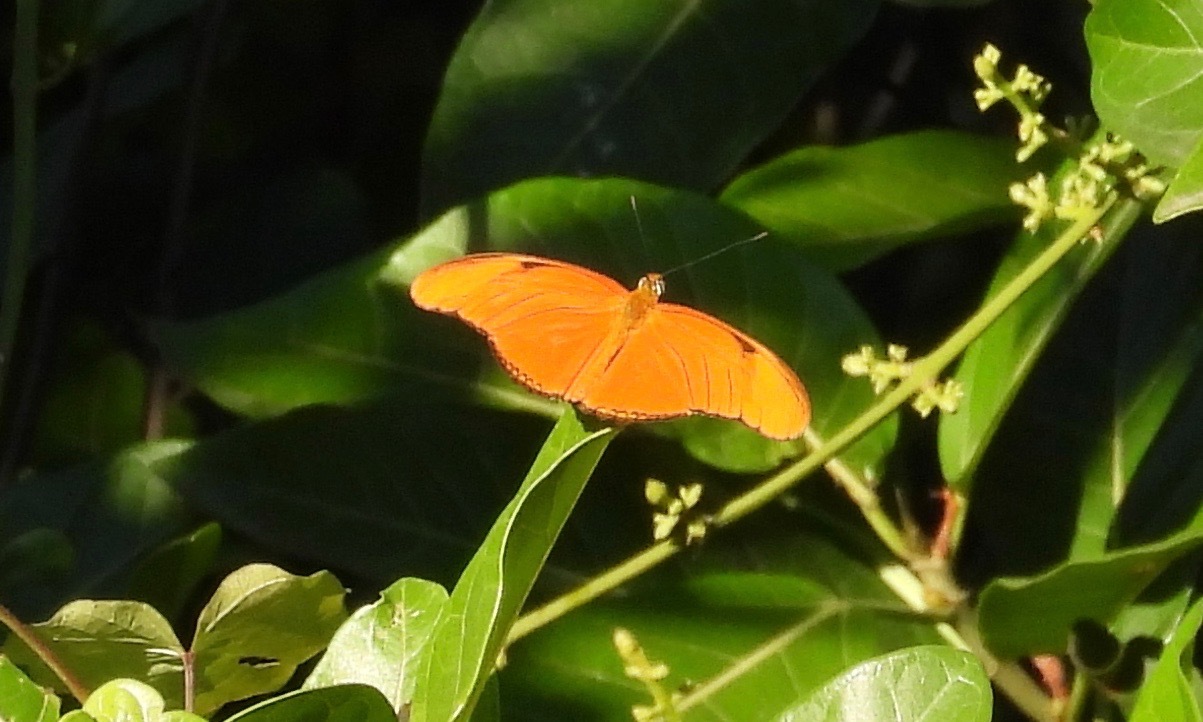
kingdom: Animalia
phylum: Arthropoda
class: Insecta
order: Lepidoptera
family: Nymphalidae
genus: Dryas
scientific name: Dryas iulia
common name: Flambeau
